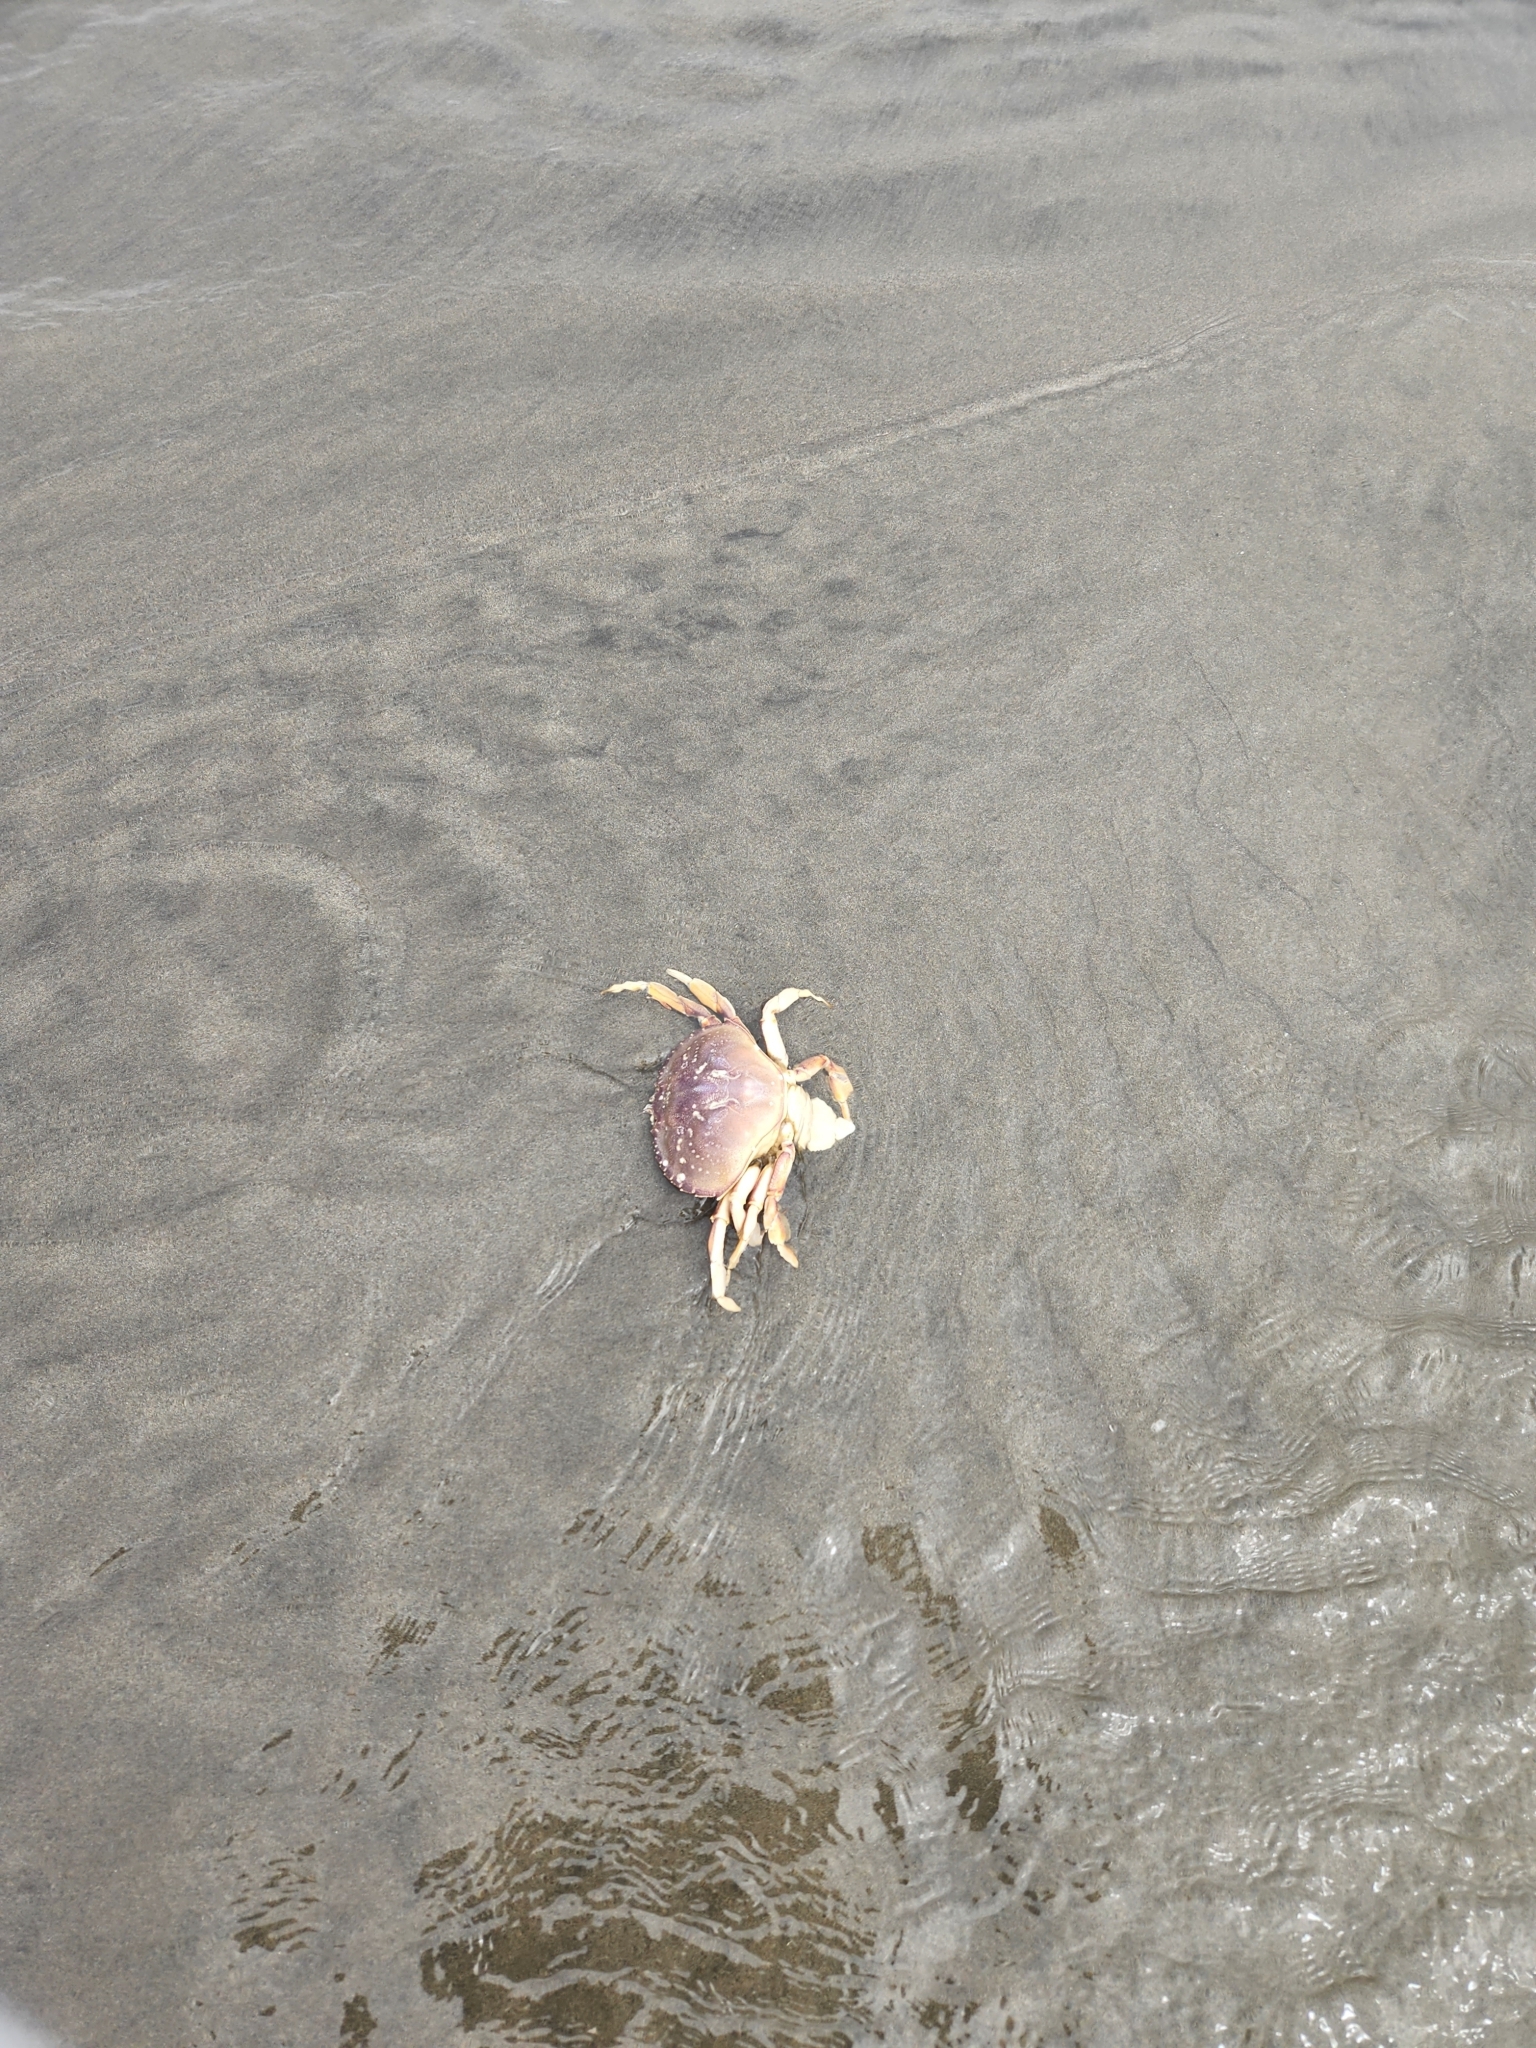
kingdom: Animalia
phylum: Arthropoda
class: Malacostraca
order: Decapoda
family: Cancridae
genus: Metacarcinus
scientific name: Metacarcinus magister
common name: Californian crab
